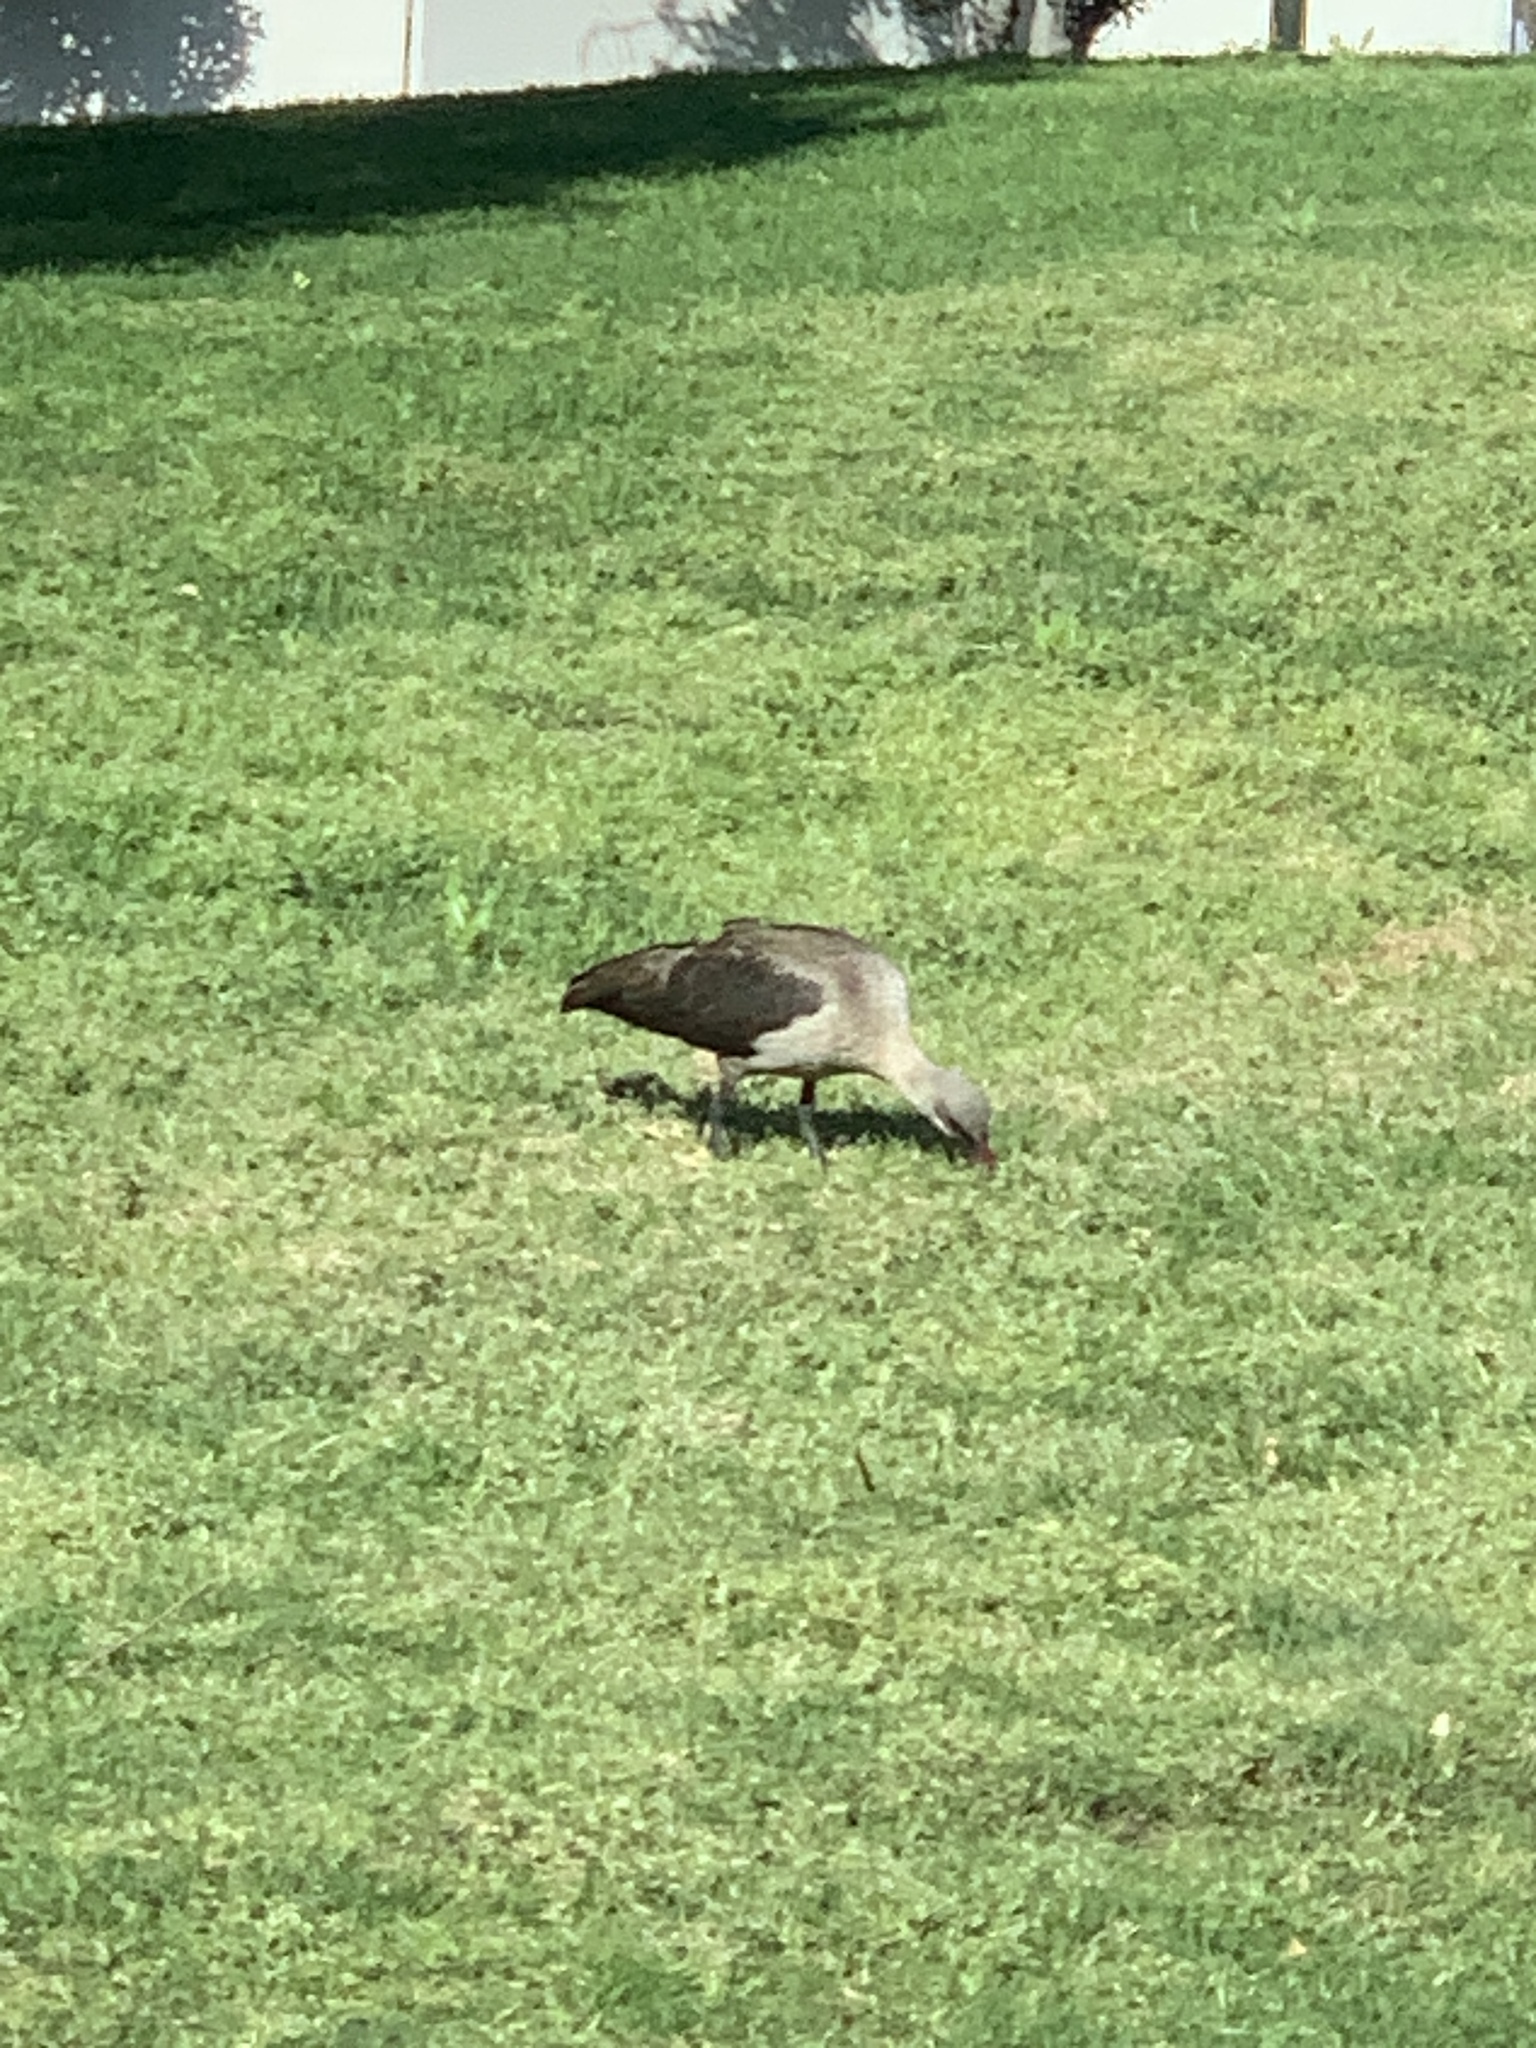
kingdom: Animalia
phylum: Chordata
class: Aves
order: Pelecaniformes
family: Threskiornithidae
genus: Bostrychia
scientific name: Bostrychia hagedash
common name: Hadada ibis
